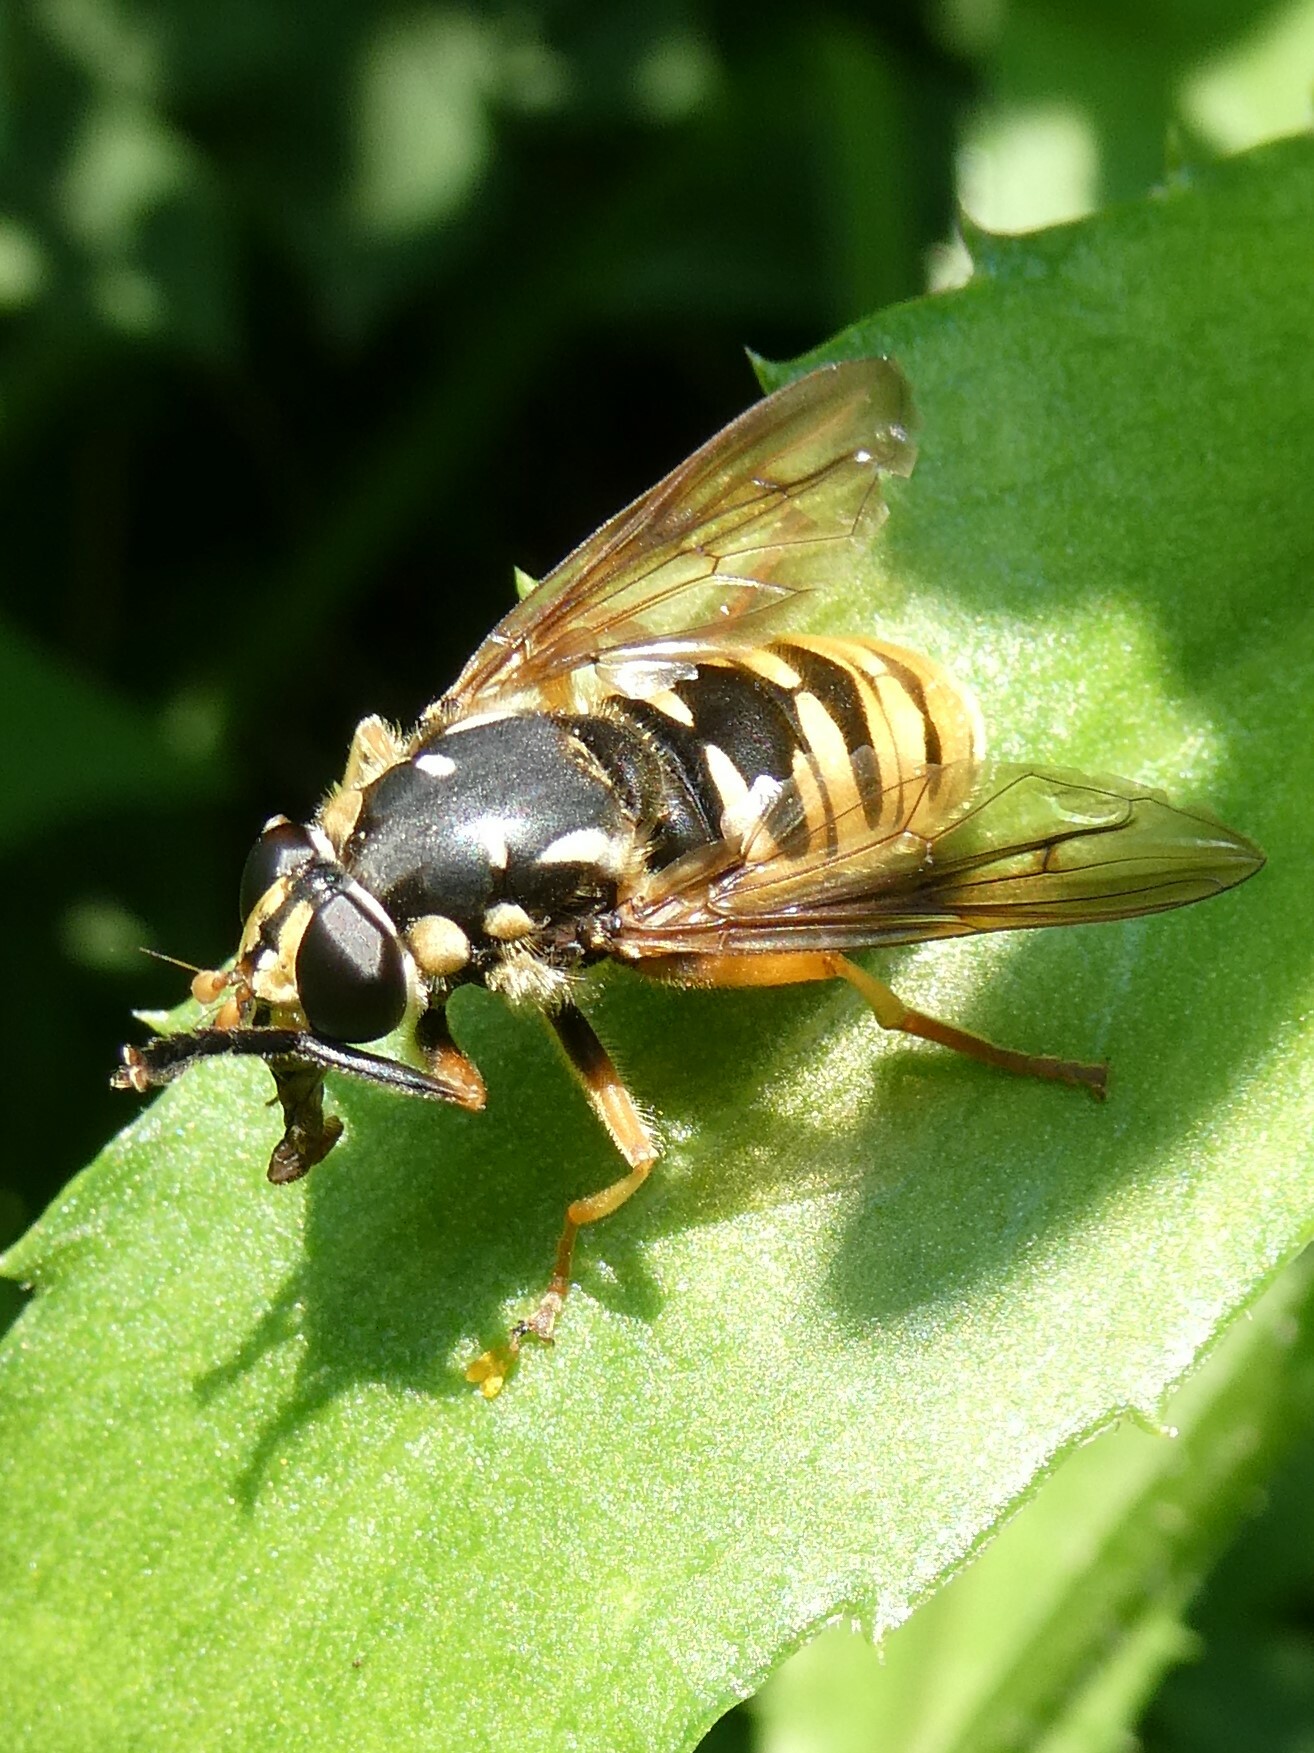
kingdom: Animalia
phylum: Arthropoda
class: Insecta
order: Diptera
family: Syrphidae
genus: Temnostoma
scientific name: Temnostoma alternans
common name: Wasp-like falsehorn
